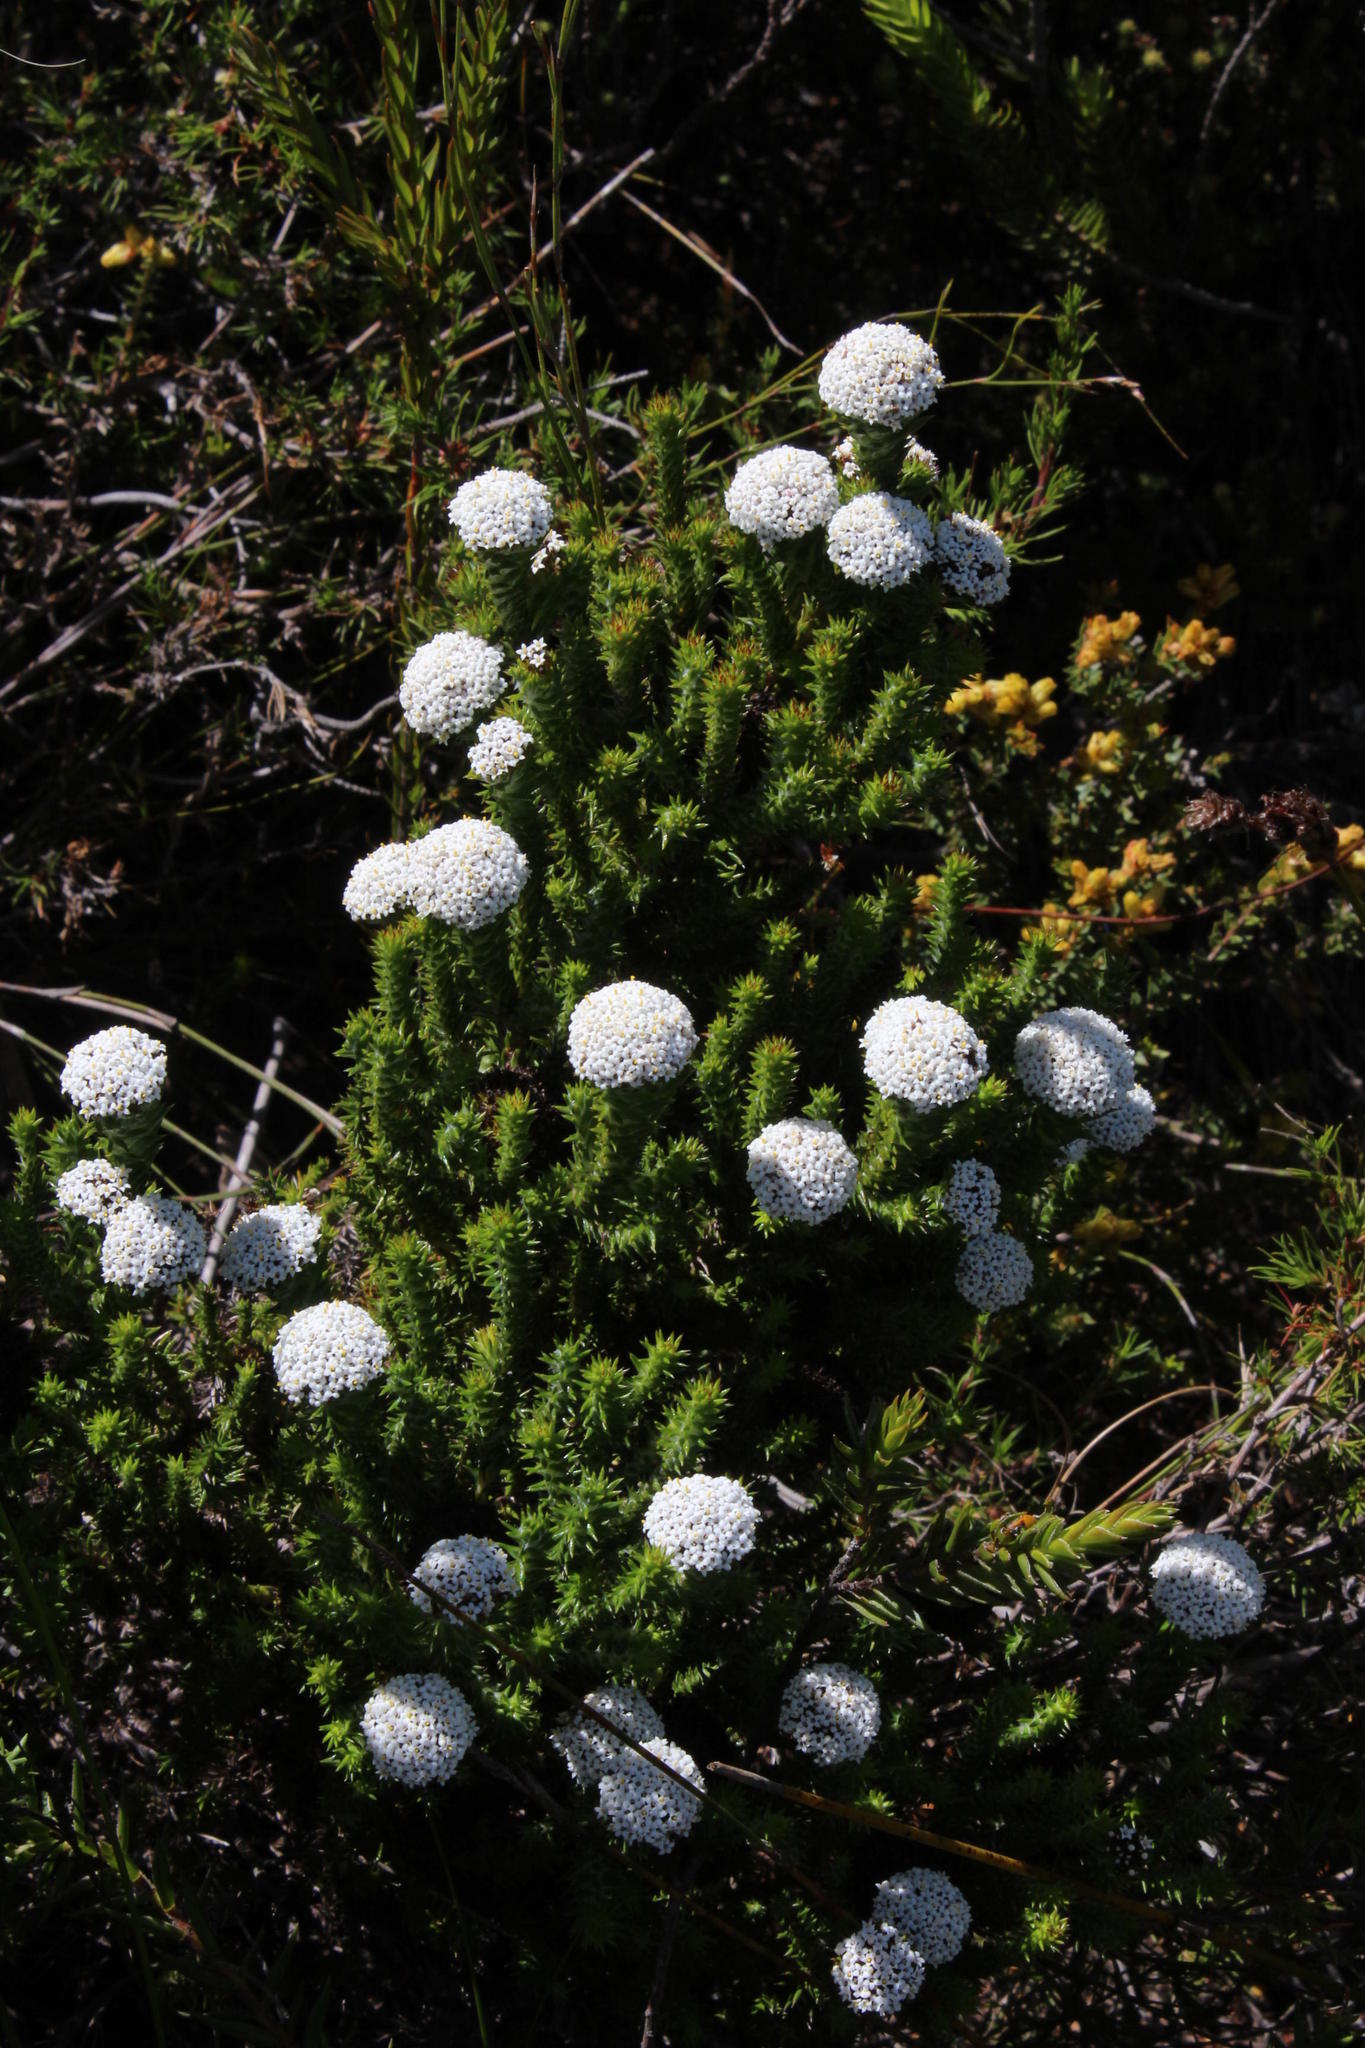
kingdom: Plantae
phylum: Tracheophyta
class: Magnoliopsida
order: Asterales
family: Asteraceae
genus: Stoebe
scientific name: Stoebe aethiopica
